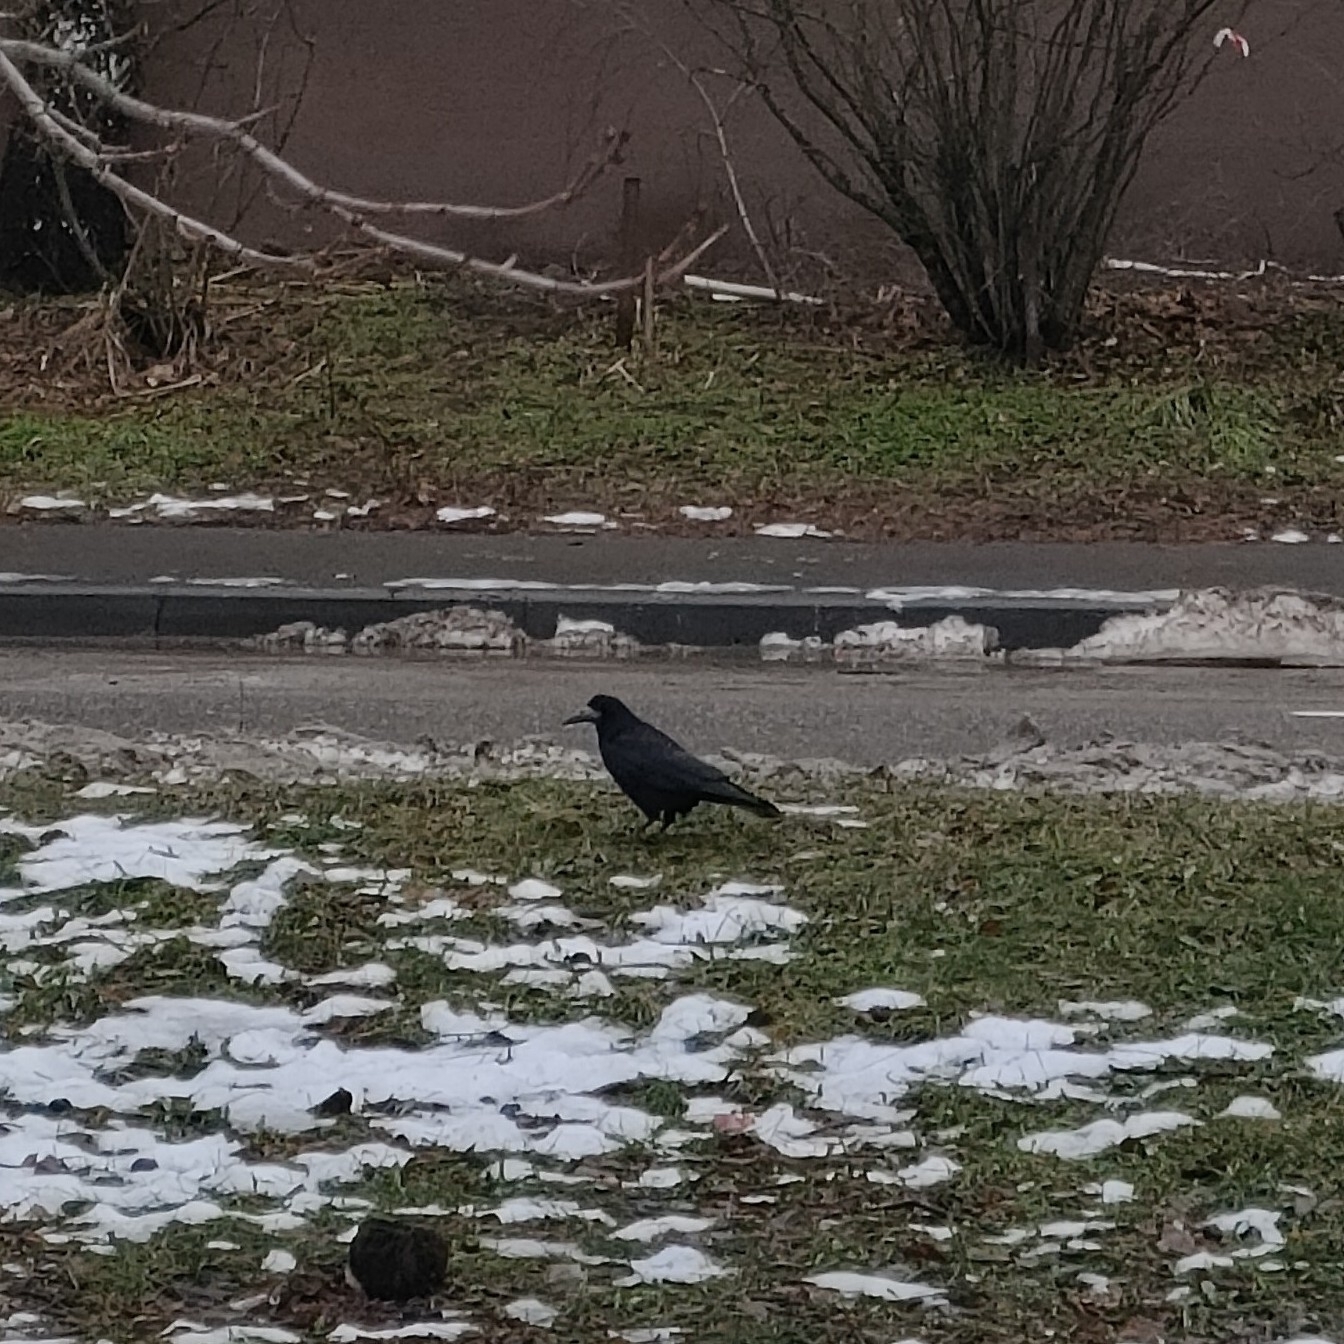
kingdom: Animalia
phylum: Chordata
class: Aves
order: Passeriformes
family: Corvidae
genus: Corvus
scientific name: Corvus frugilegus
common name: Rook
